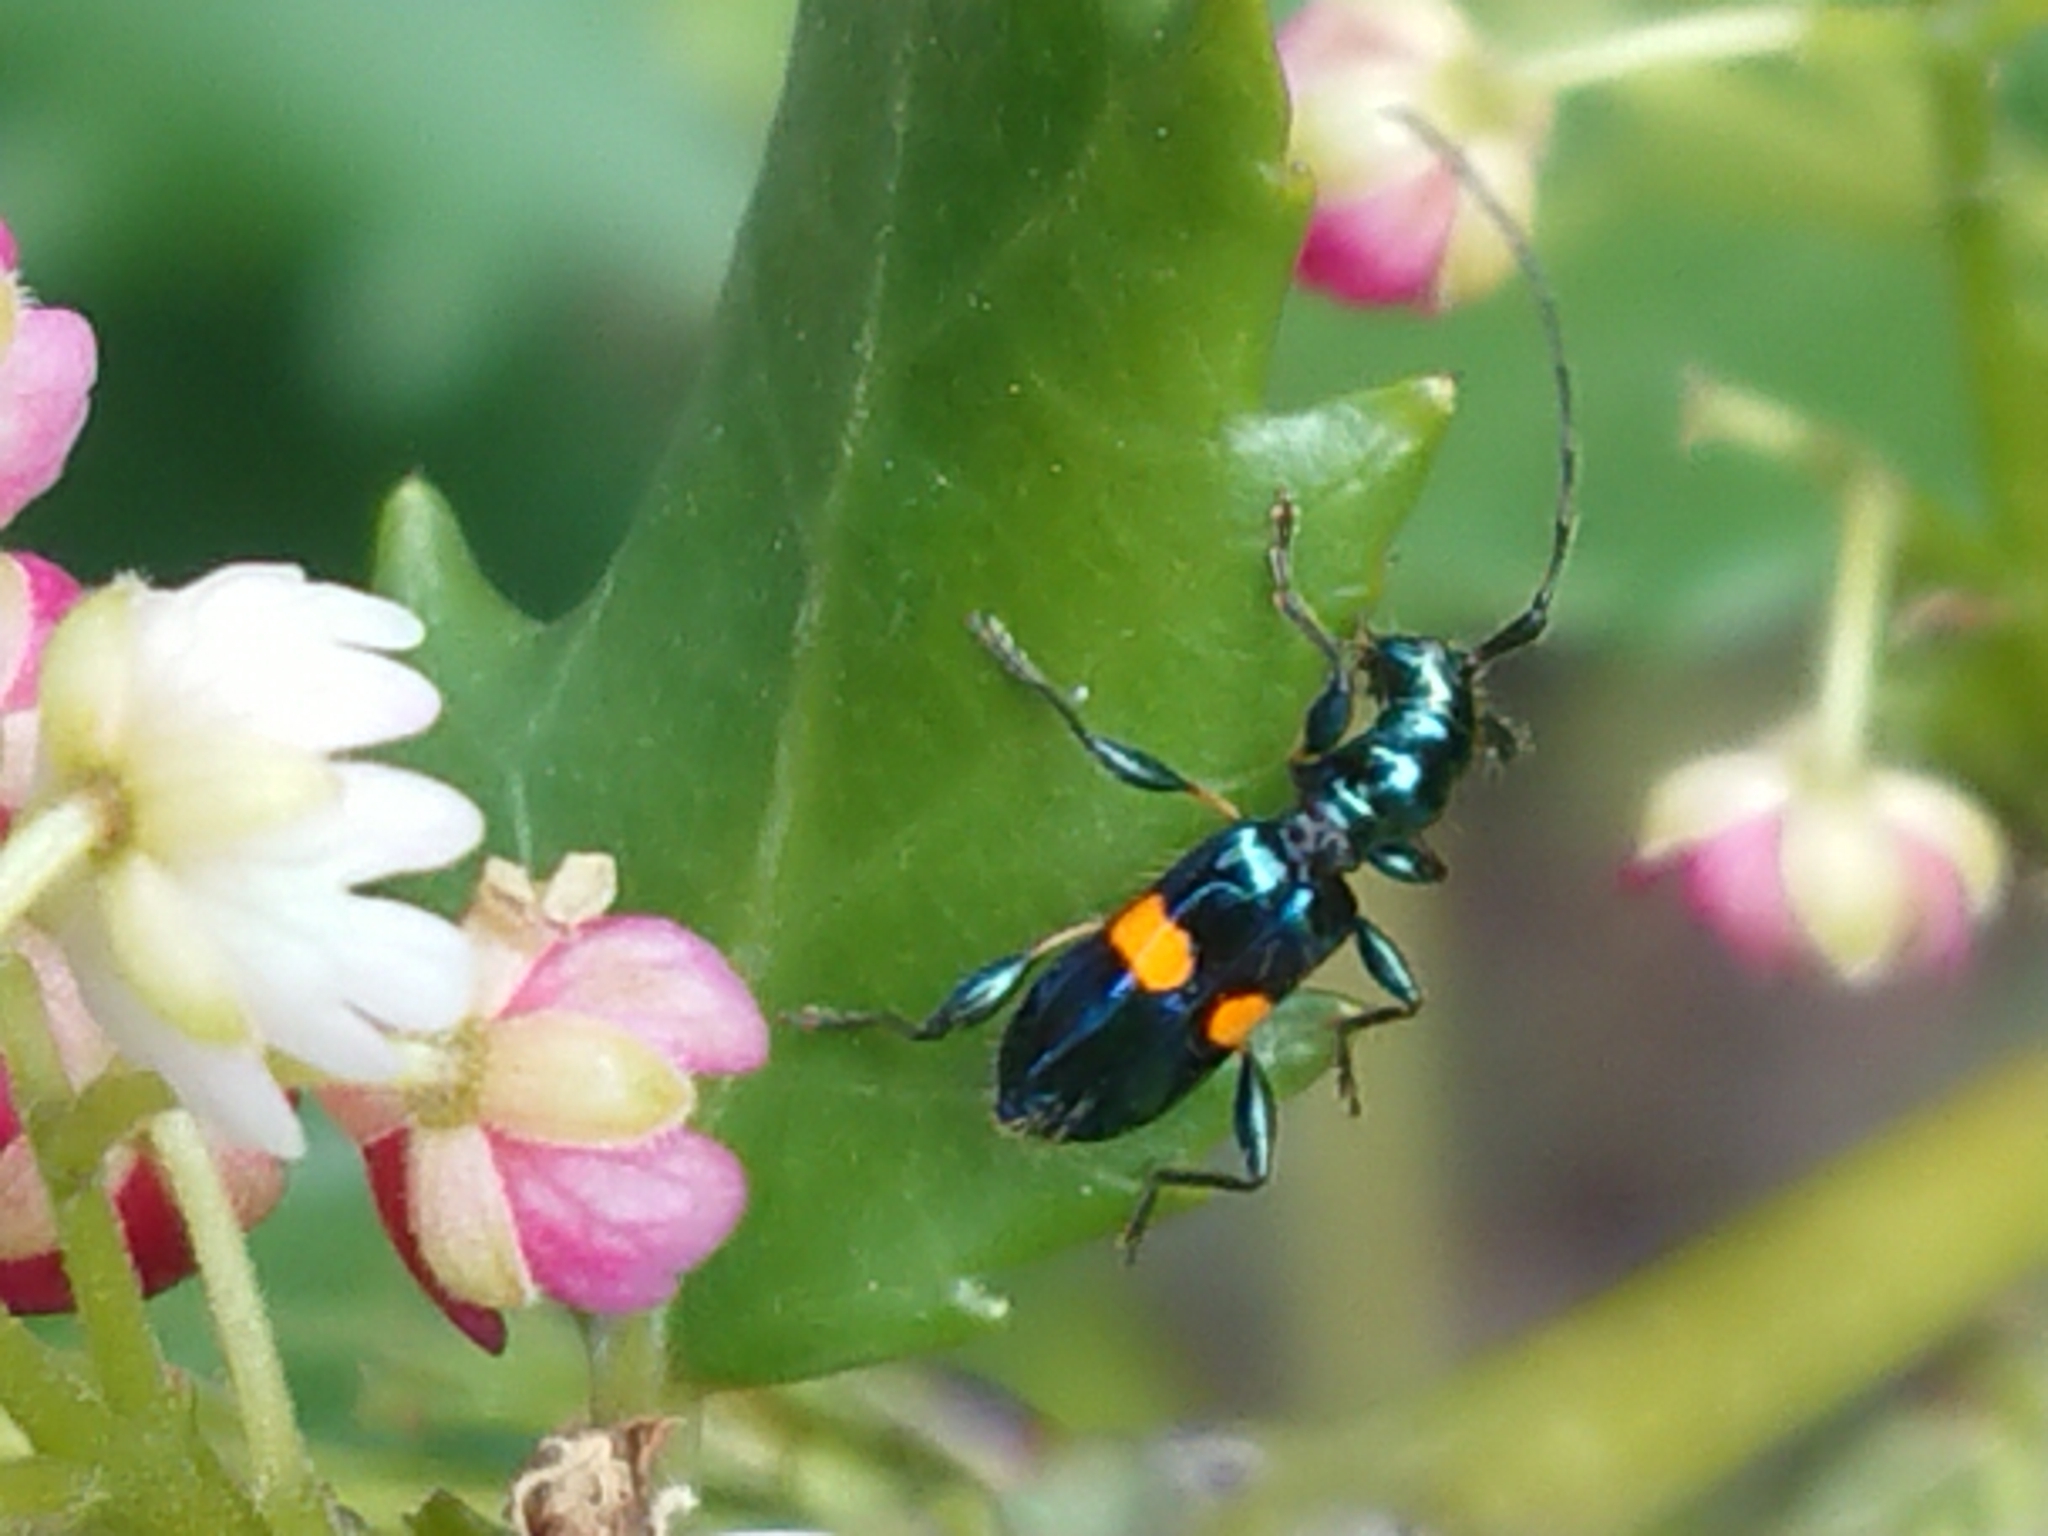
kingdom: Animalia
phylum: Arthropoda
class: Insecta
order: Coleoptera
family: Cerambycidae
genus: Zorion
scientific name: Zorion guttigerum
